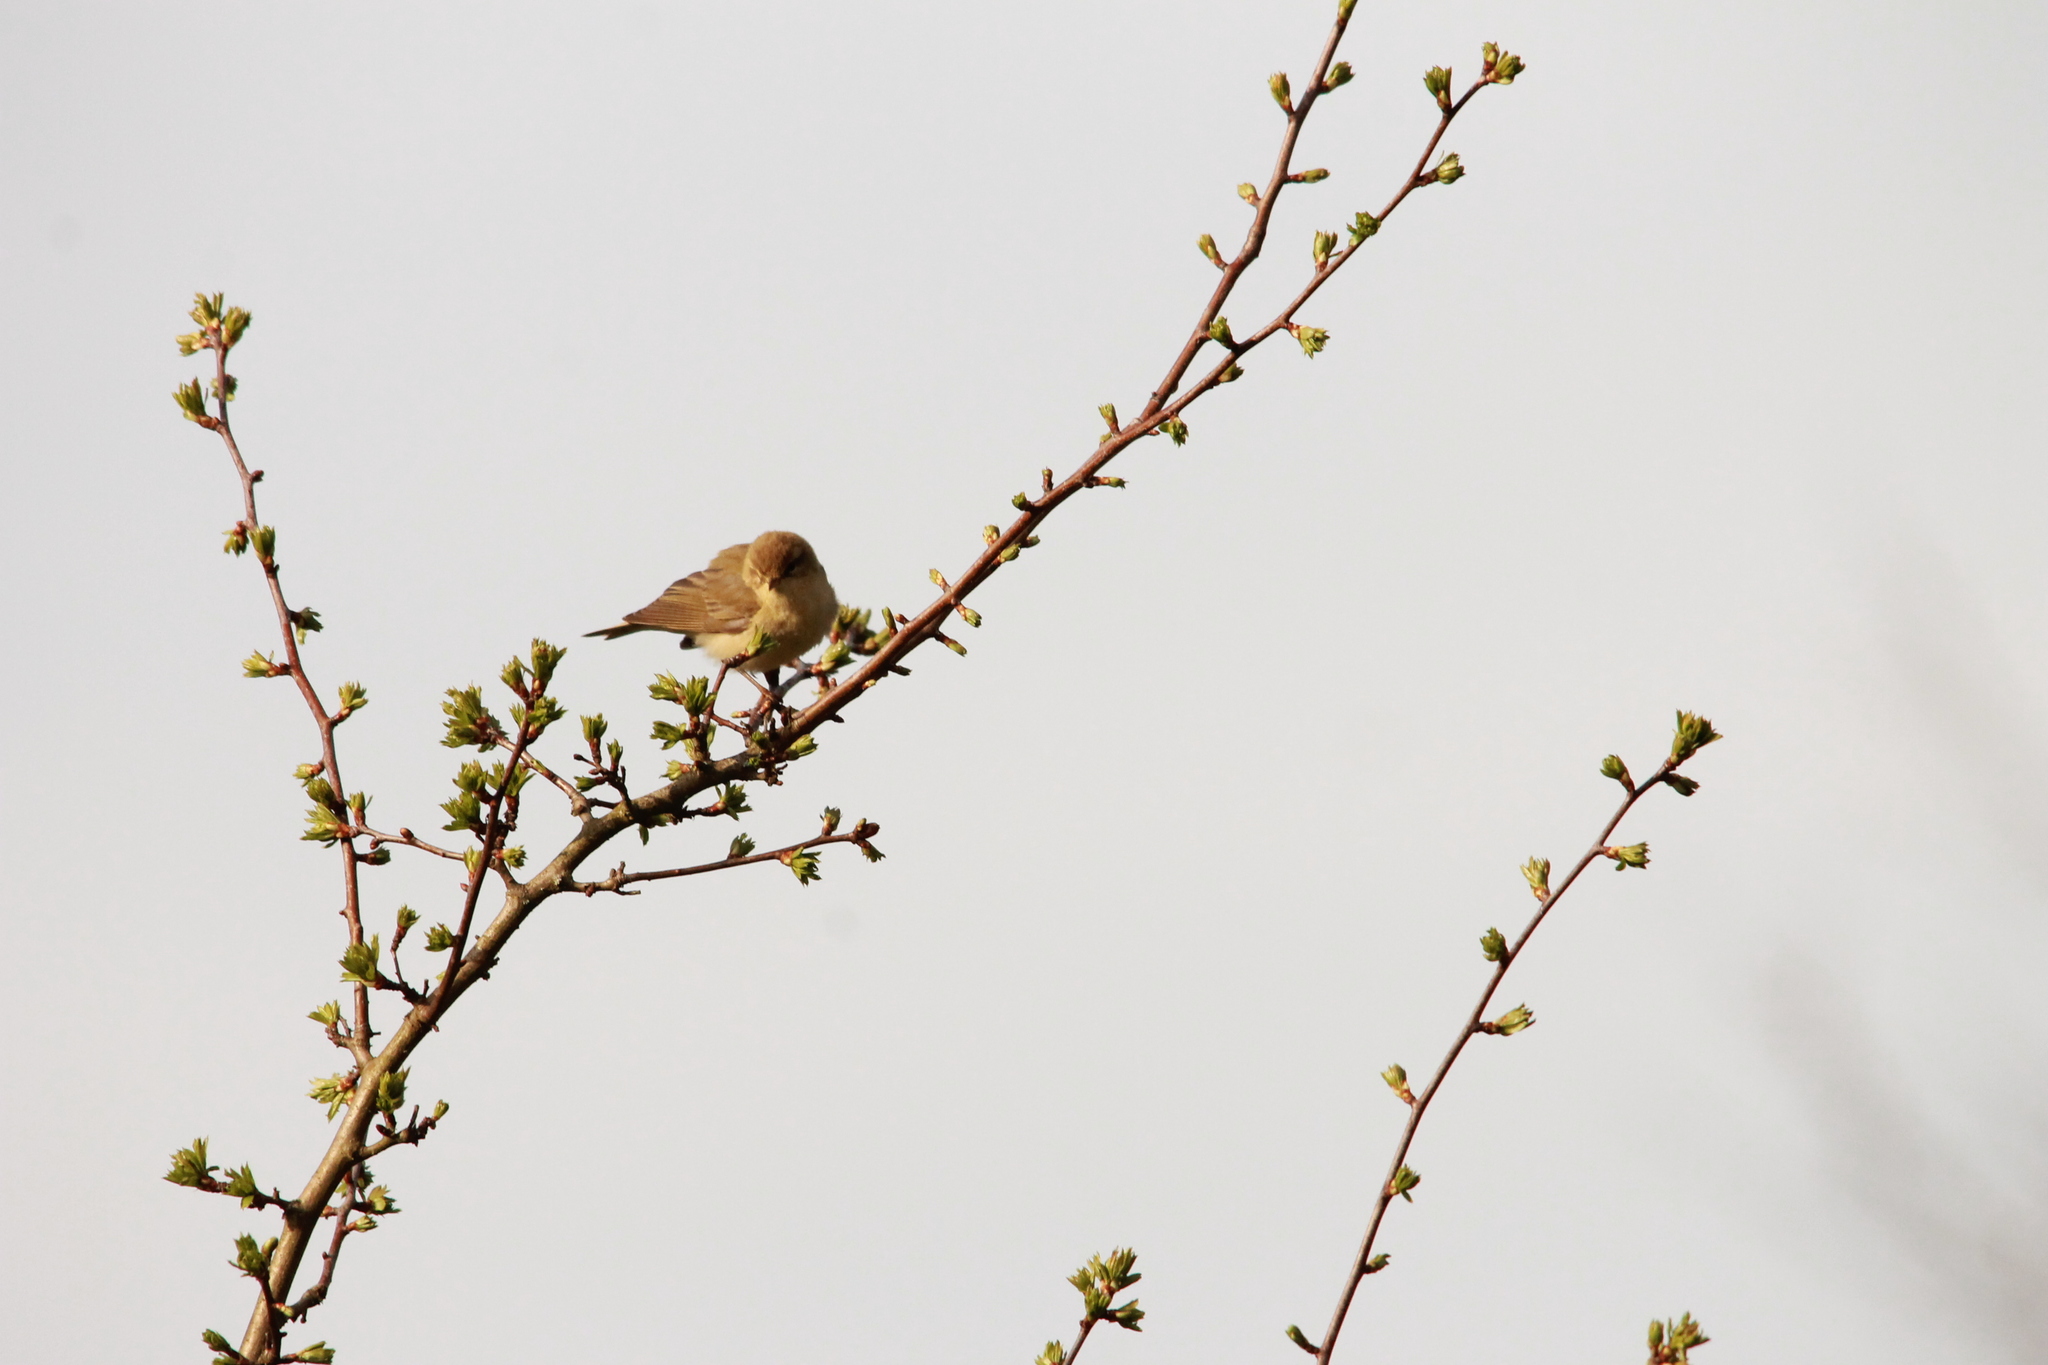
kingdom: Animalia
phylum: Chordata
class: Aves
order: Passeriformes
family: Phylloscopidae
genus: Phylloscopus
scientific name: Phylloscopus trochilus
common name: Willow warbler
